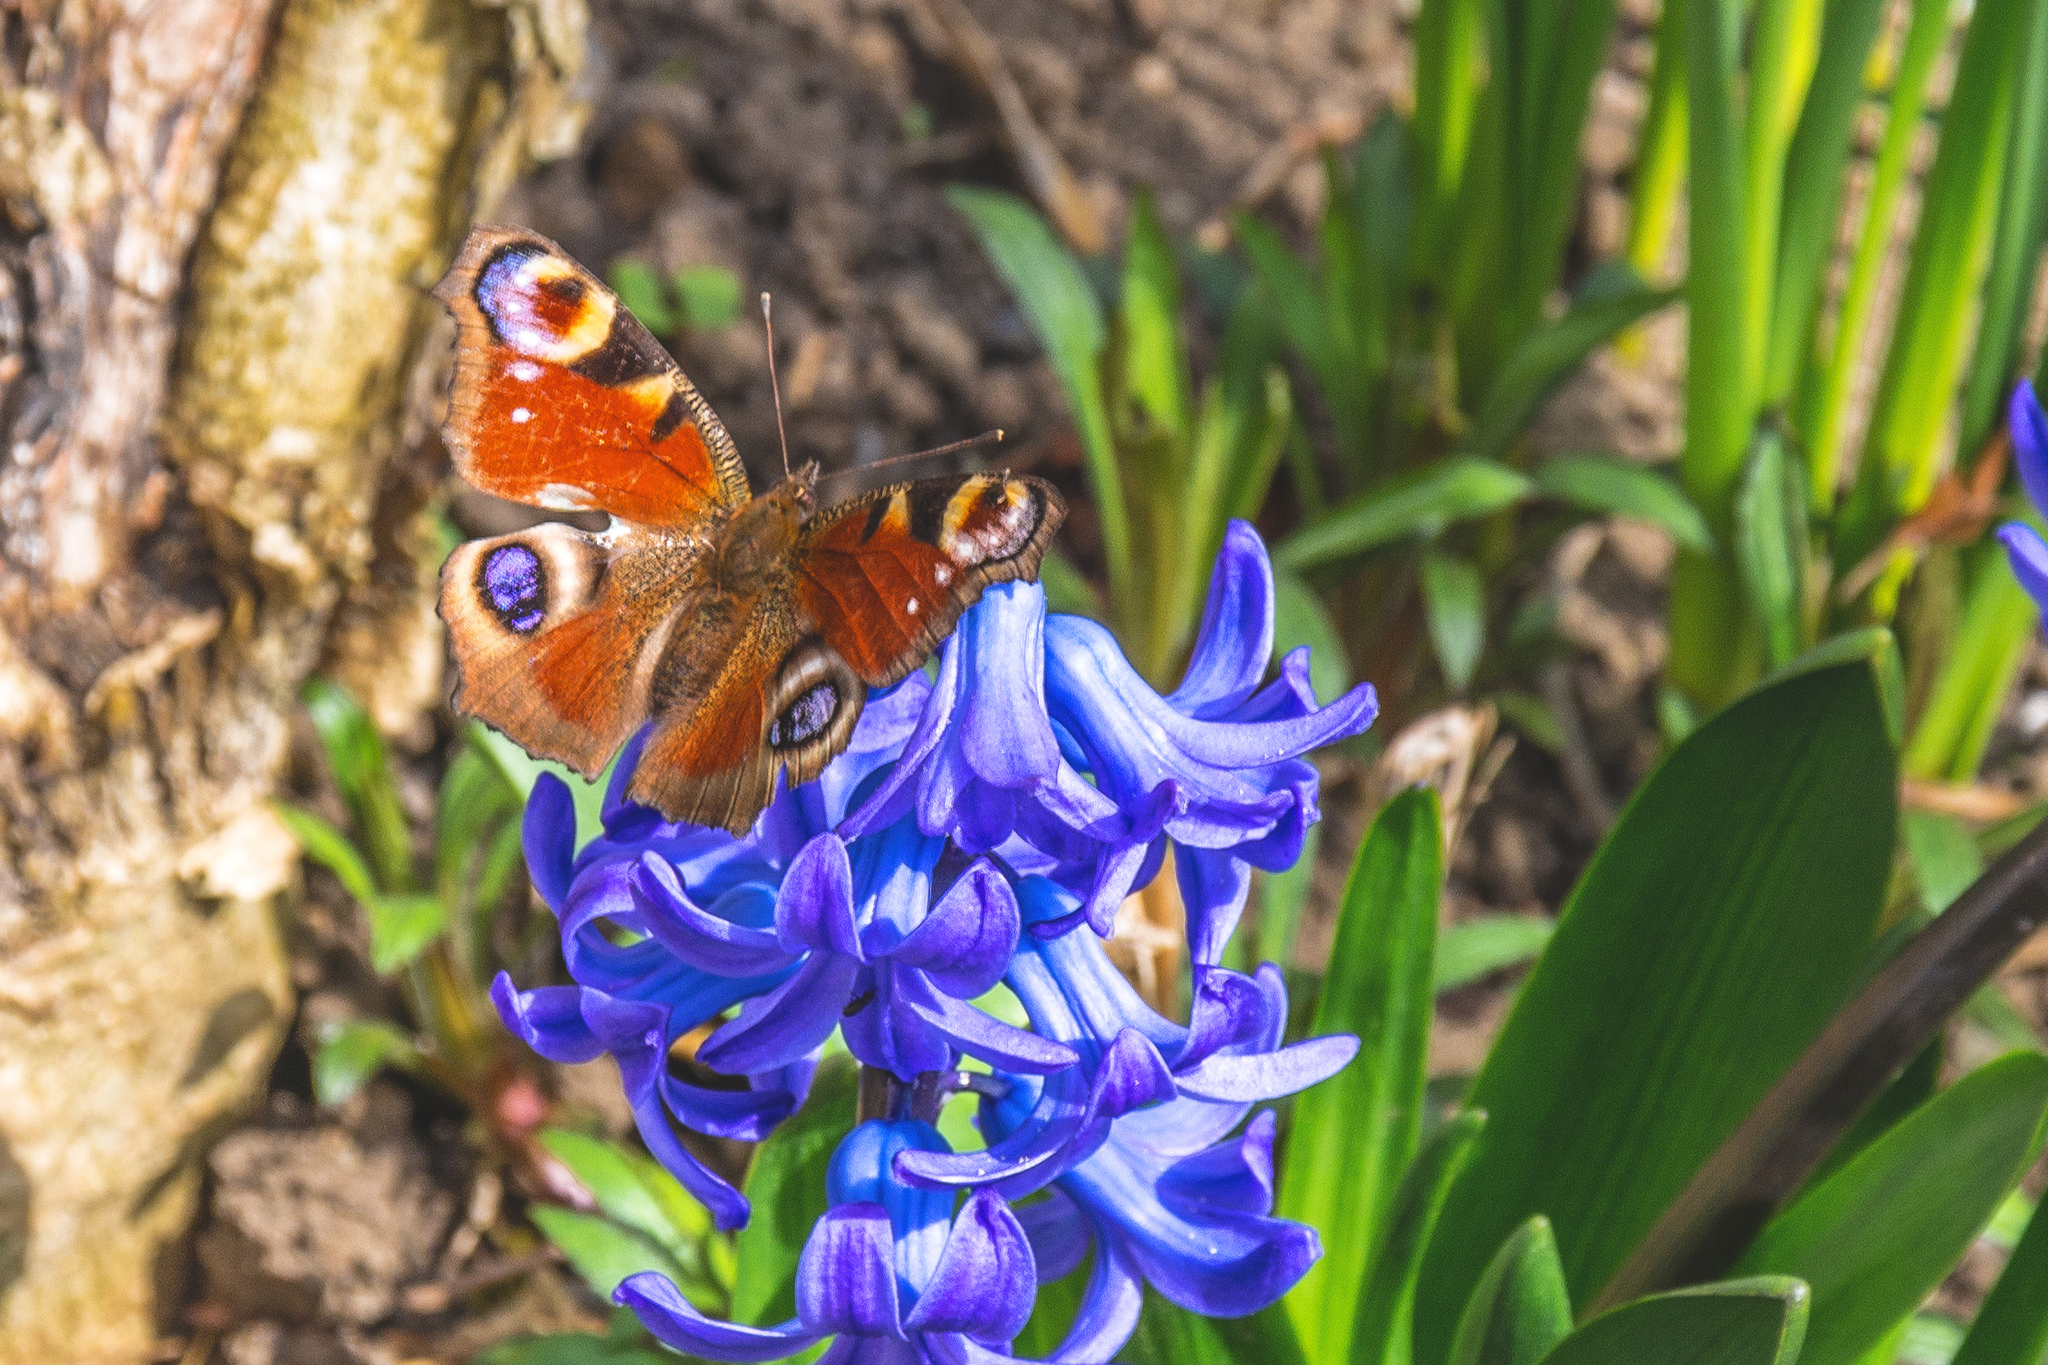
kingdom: Animalia
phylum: Arthropoda
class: Insecta
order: Lepidoptera
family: Nymphalidae
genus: Aglais
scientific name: Aglais io
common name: Peacock
